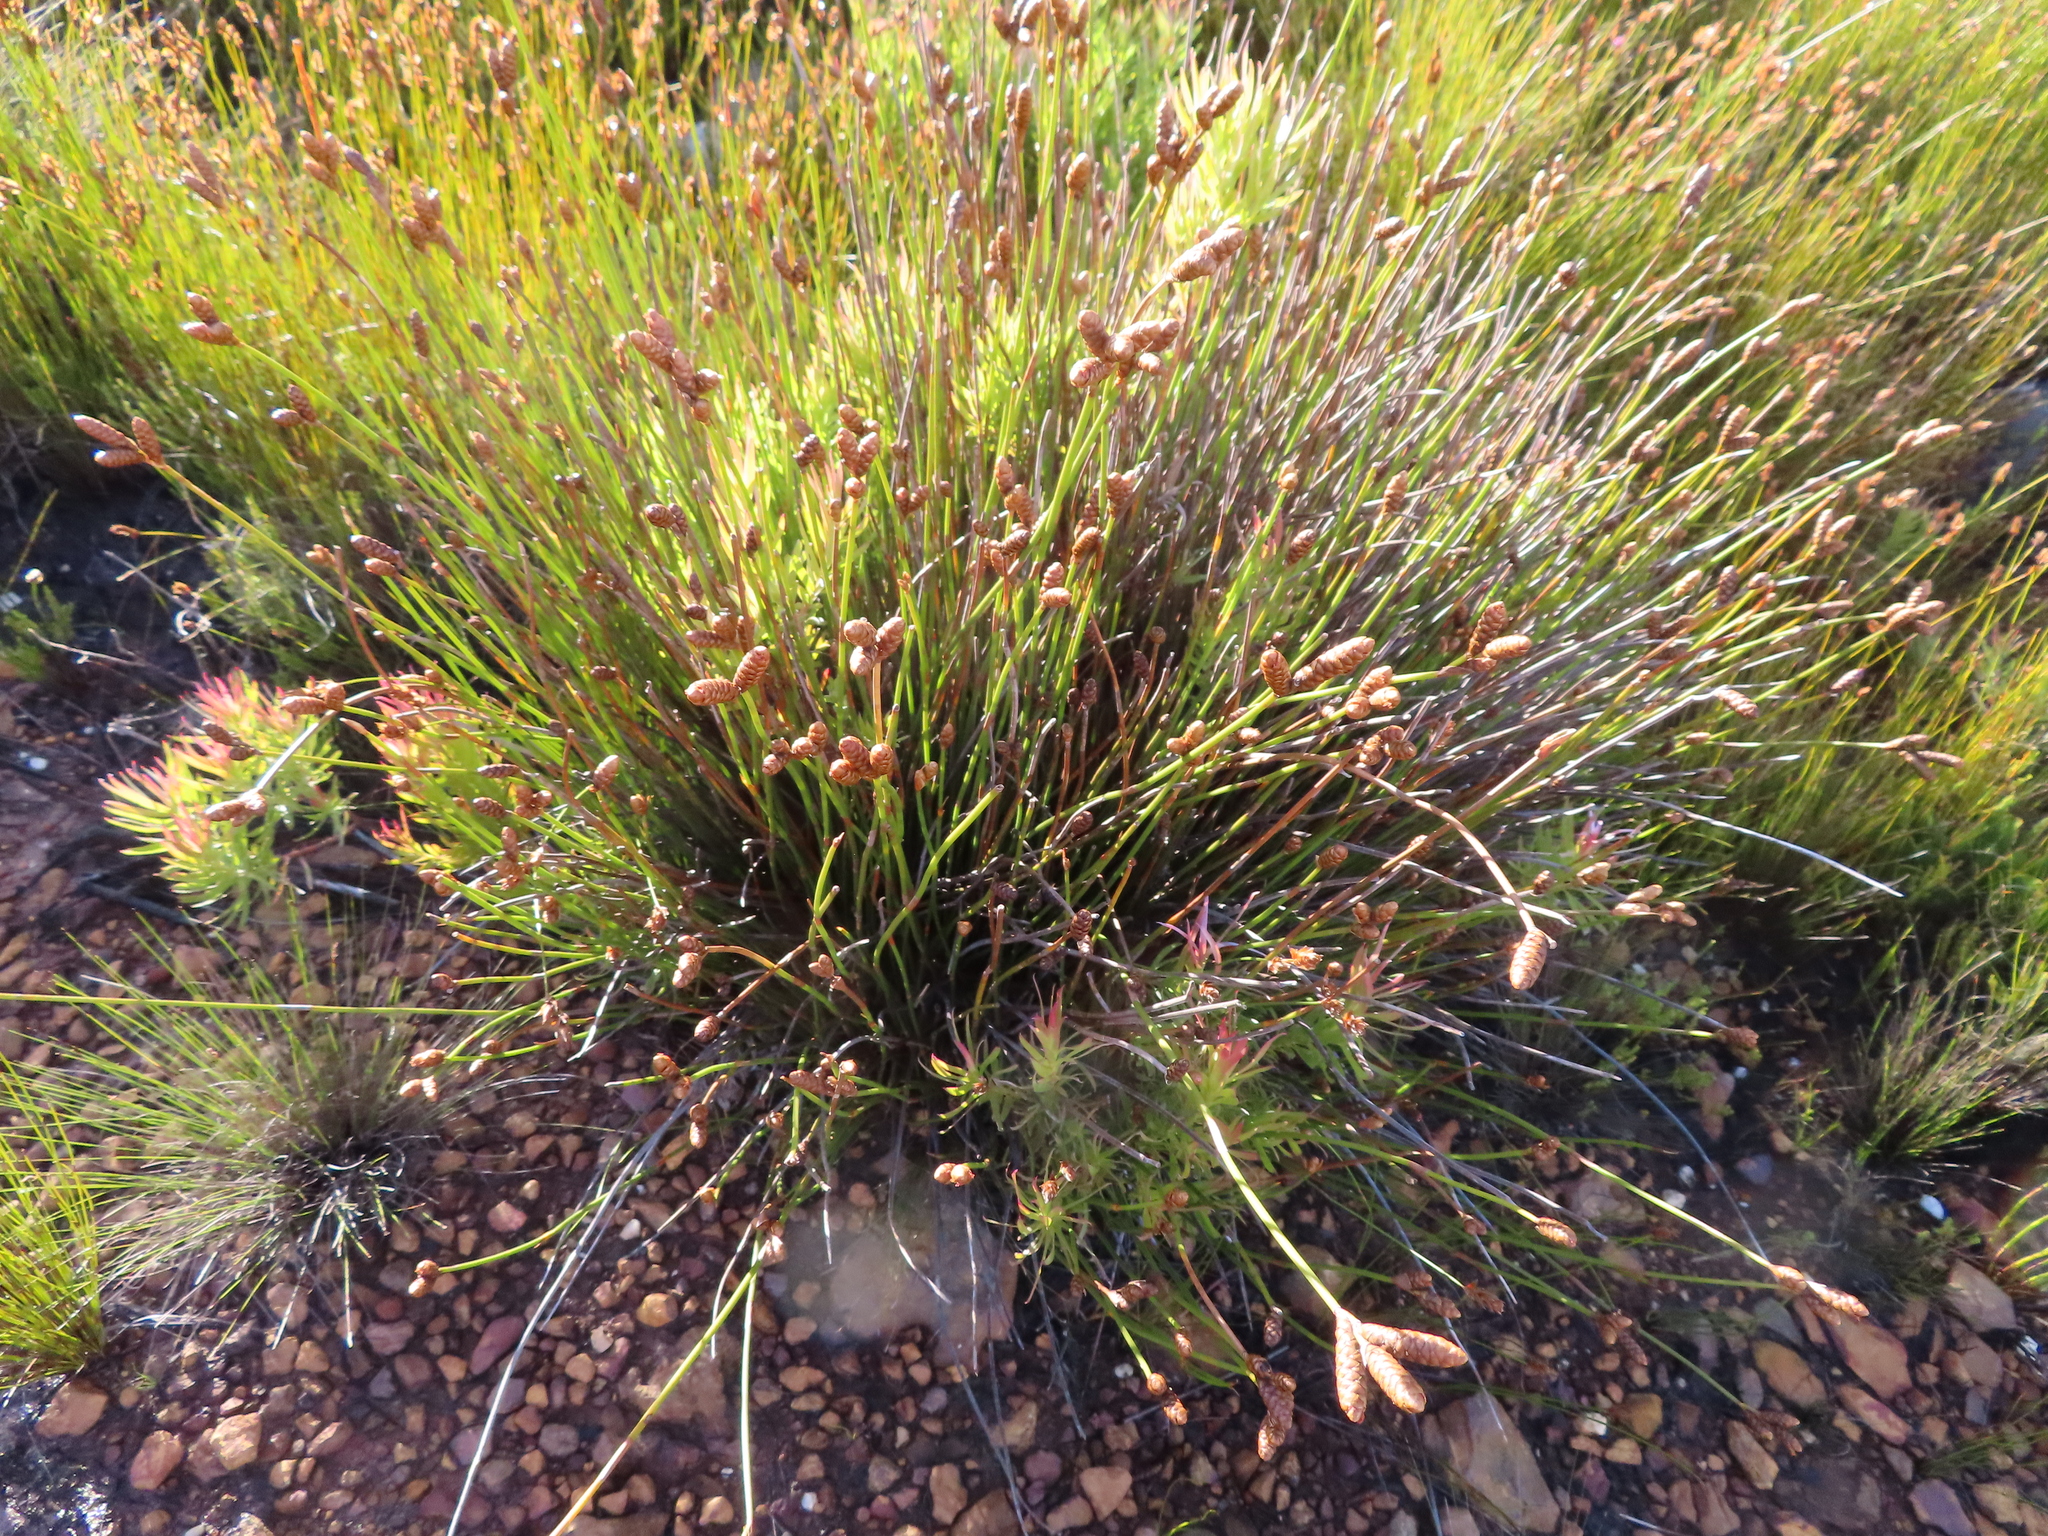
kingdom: Plantae
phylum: Tracheophyta
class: Liliopsida
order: Poales
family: Restionaceae
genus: Nevillea
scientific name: Nevillea obtusissimus
